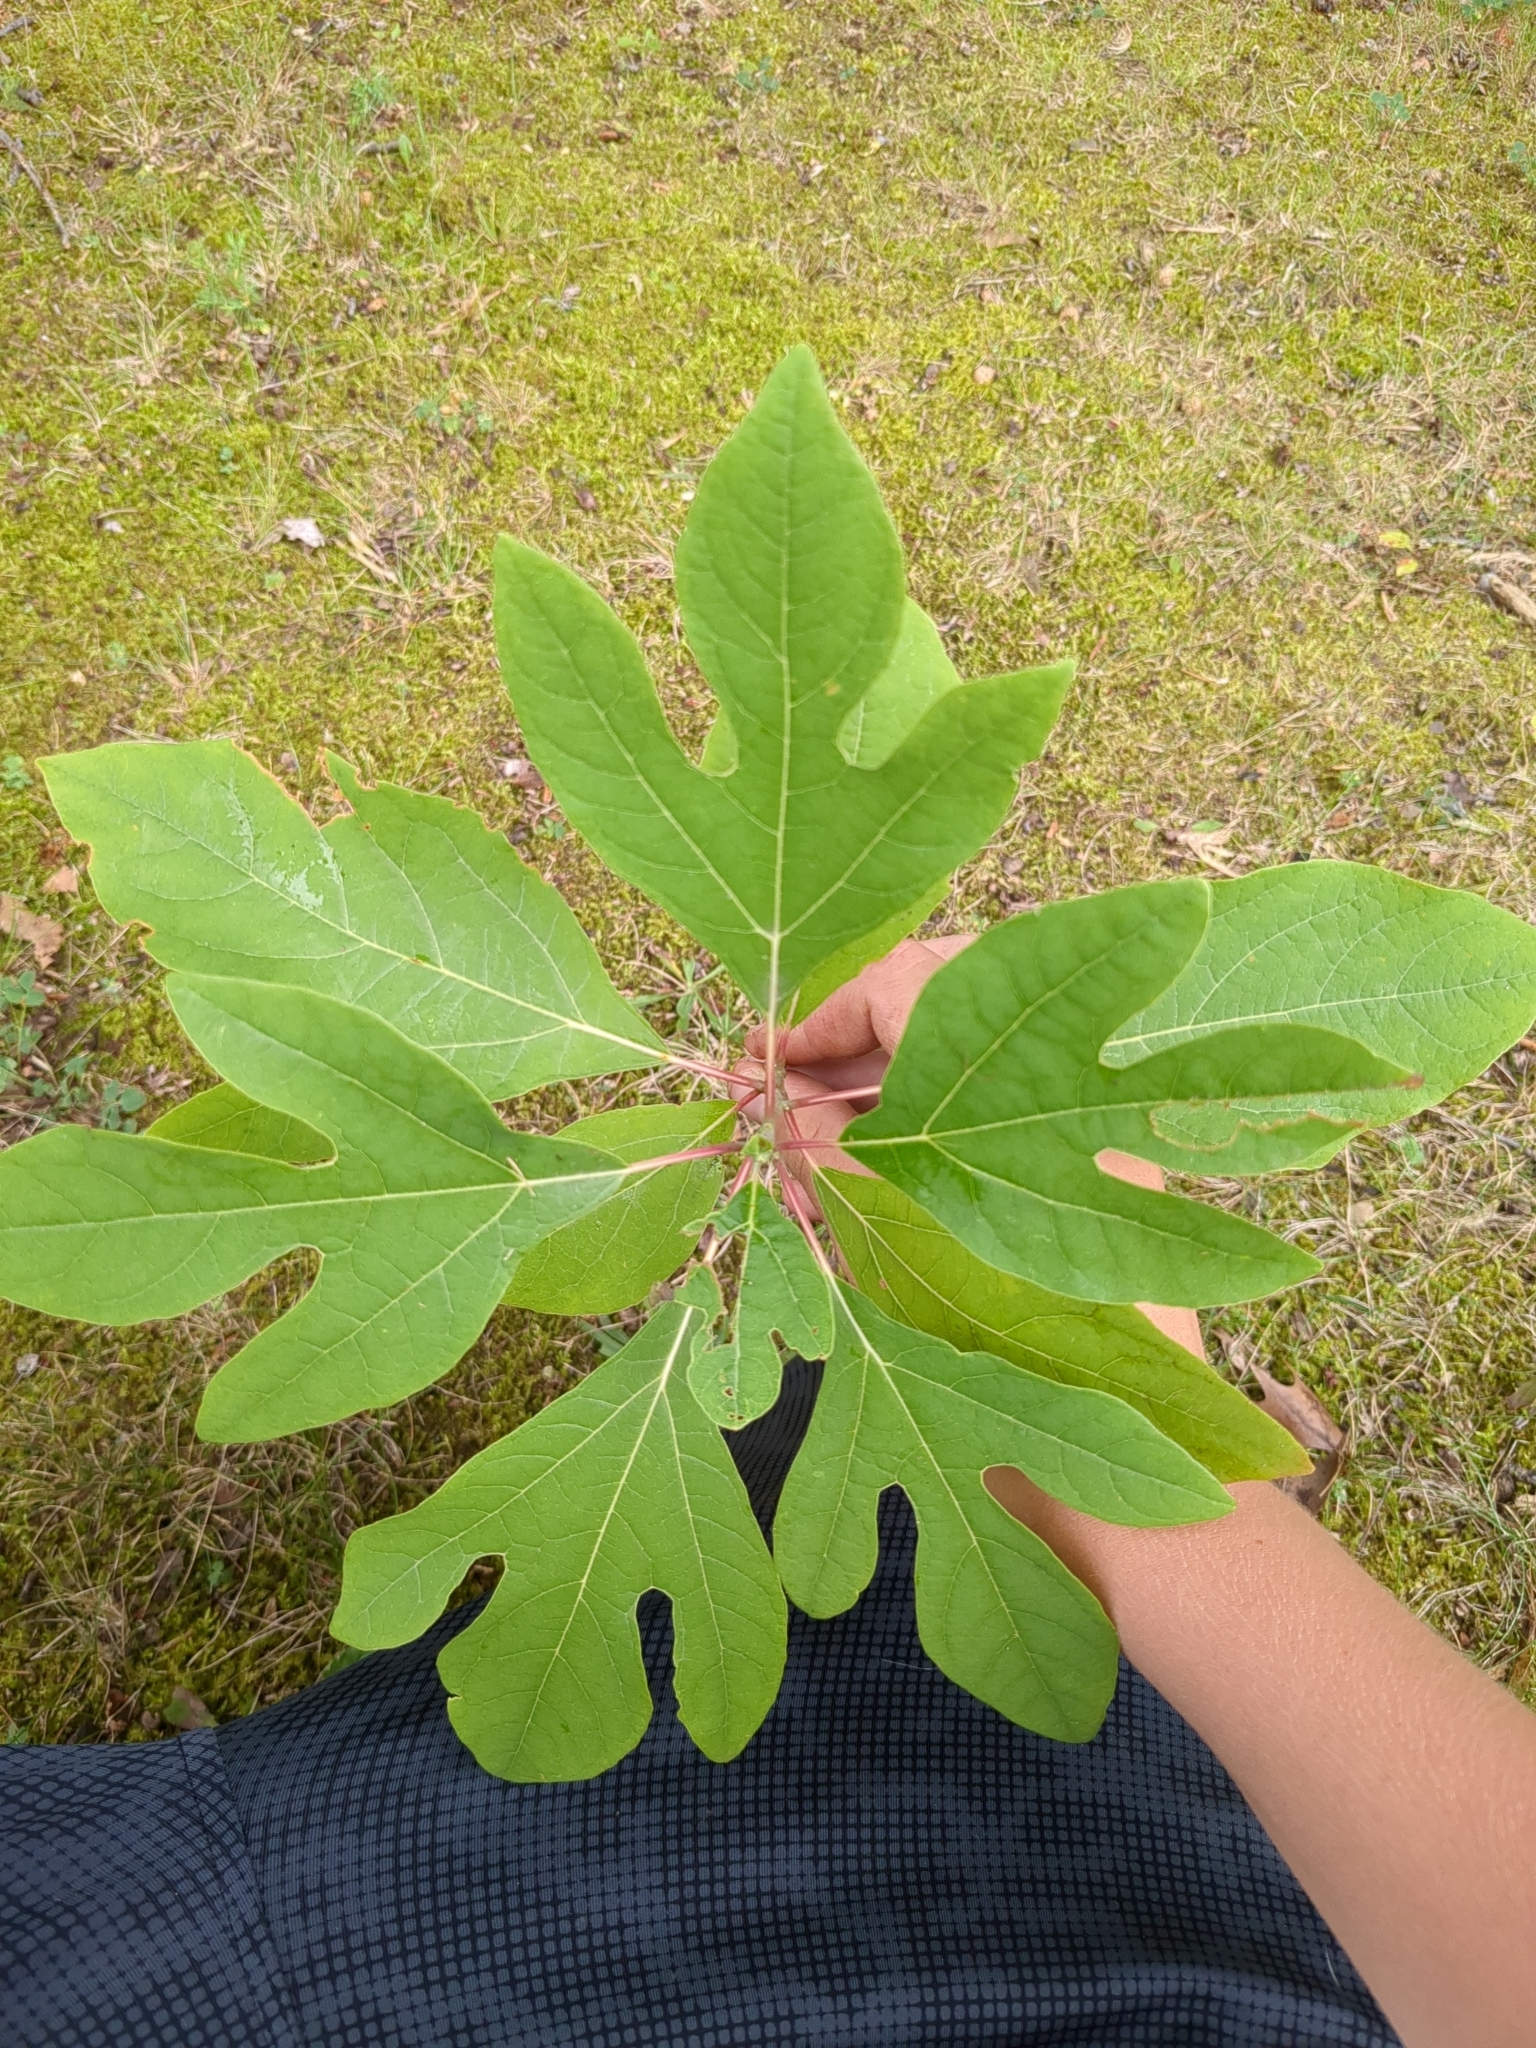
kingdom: Plantae
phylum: Tracheophyta
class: Magnoliopsida
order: Laurales
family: Lauraceae
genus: Sassafras
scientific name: Sassafras albidum
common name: Sassafras
